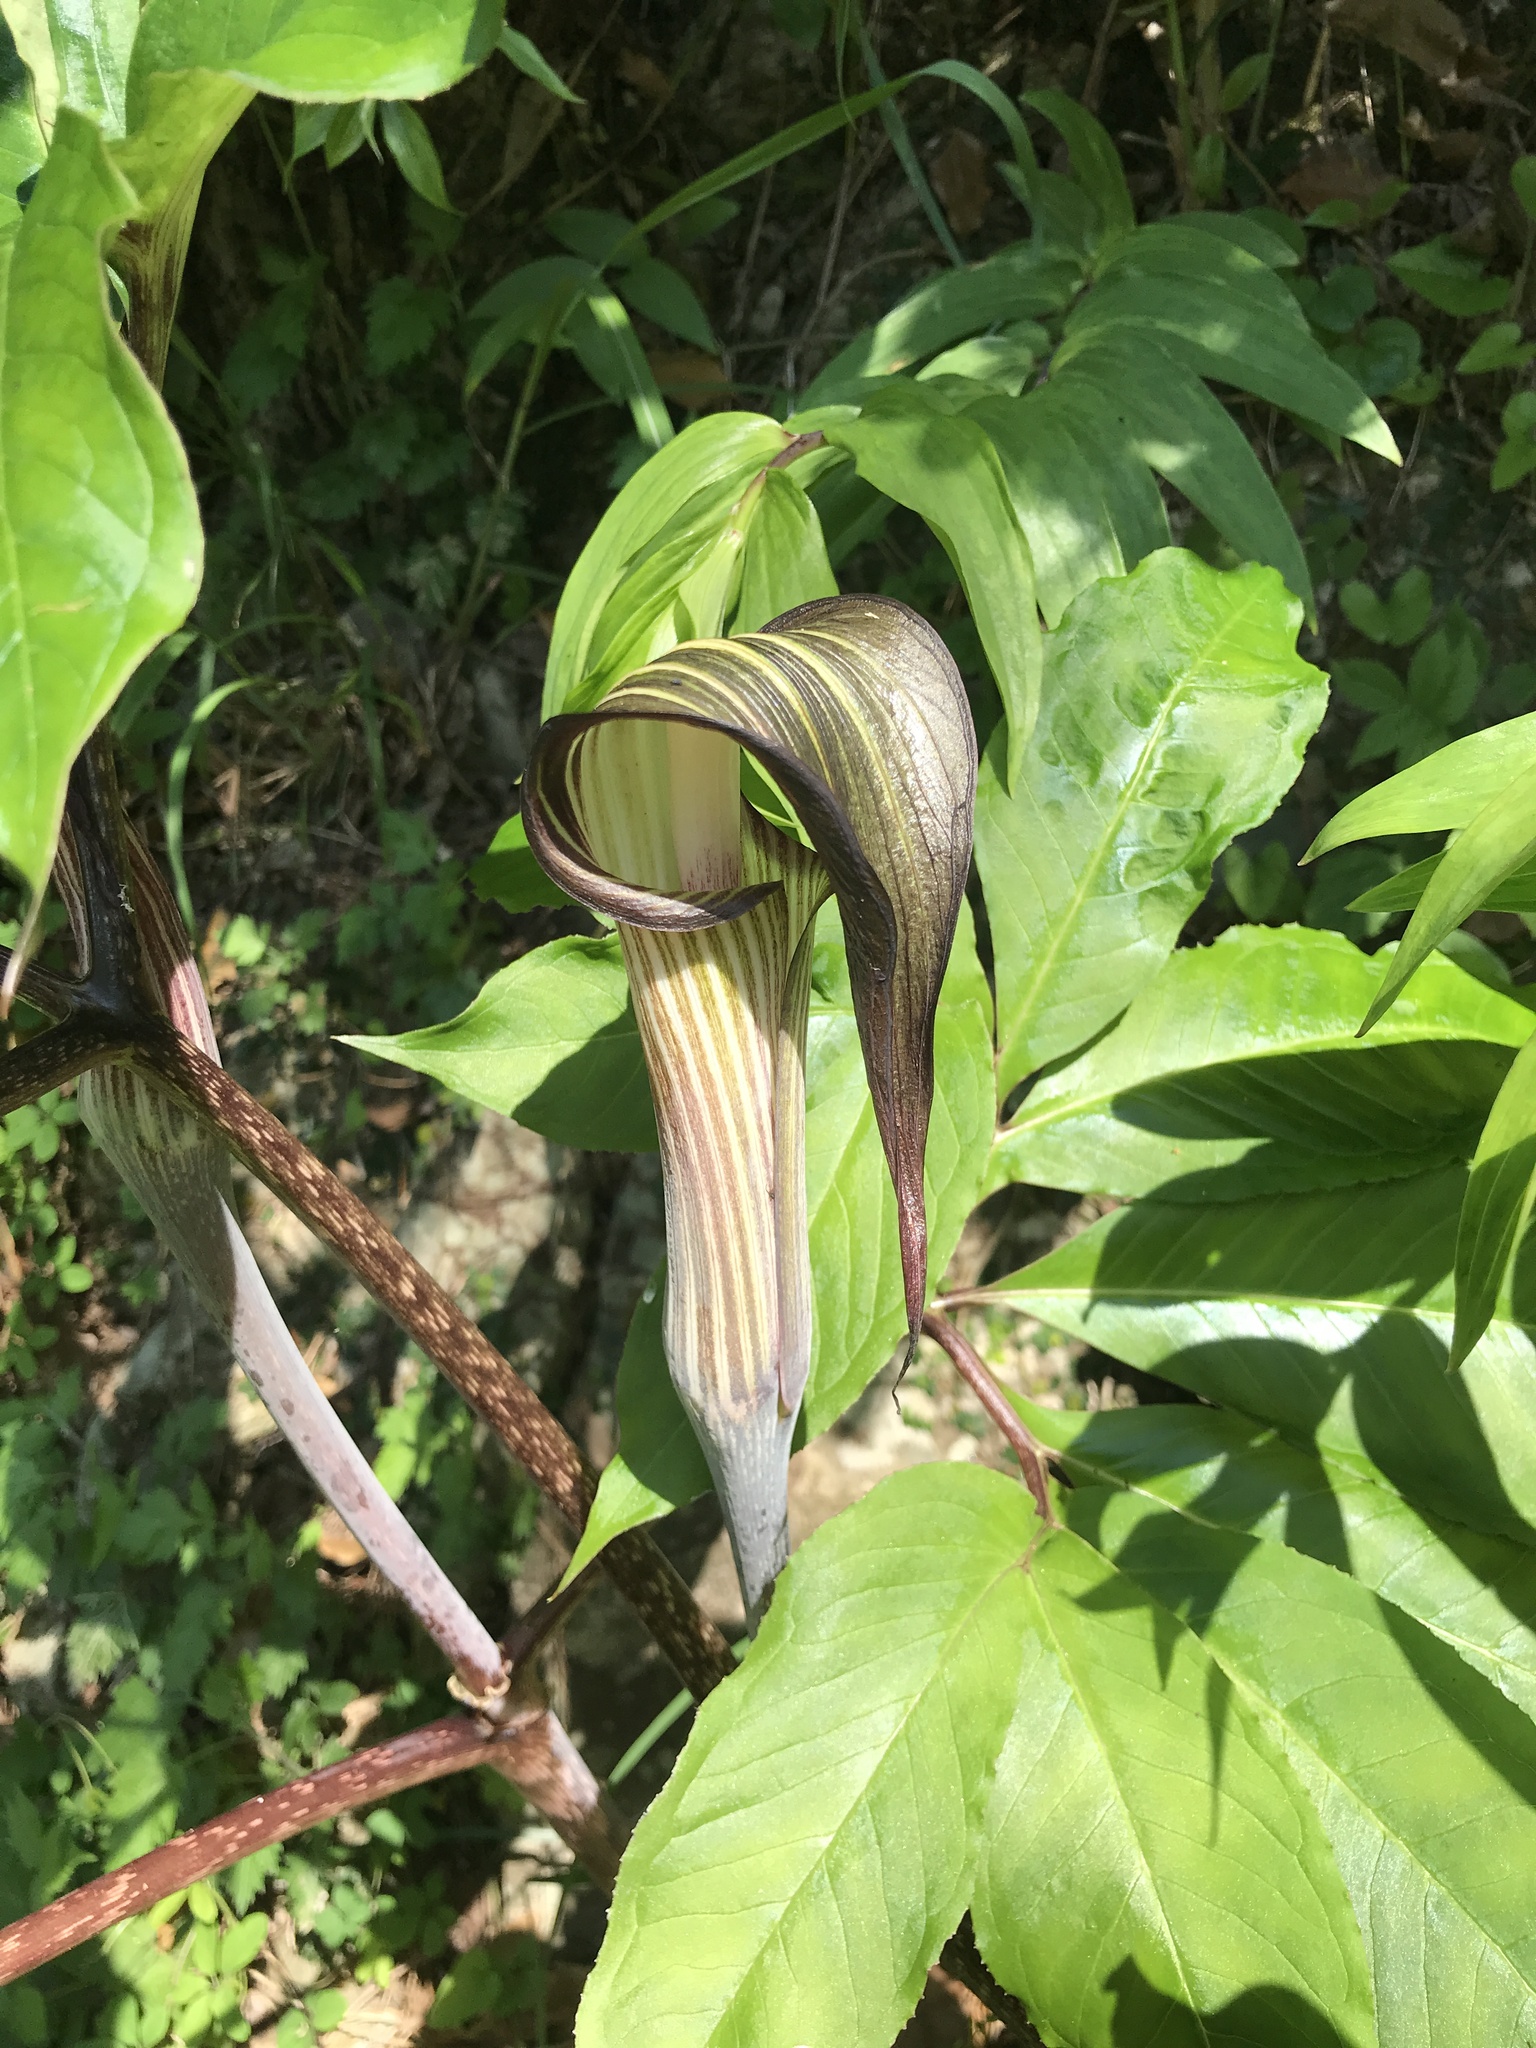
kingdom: Plantae
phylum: Tracheophyta
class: Liliopsida
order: Alismatales
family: Araceae
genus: Arisaema
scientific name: Arisaema serratum
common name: Japanese arisaema
